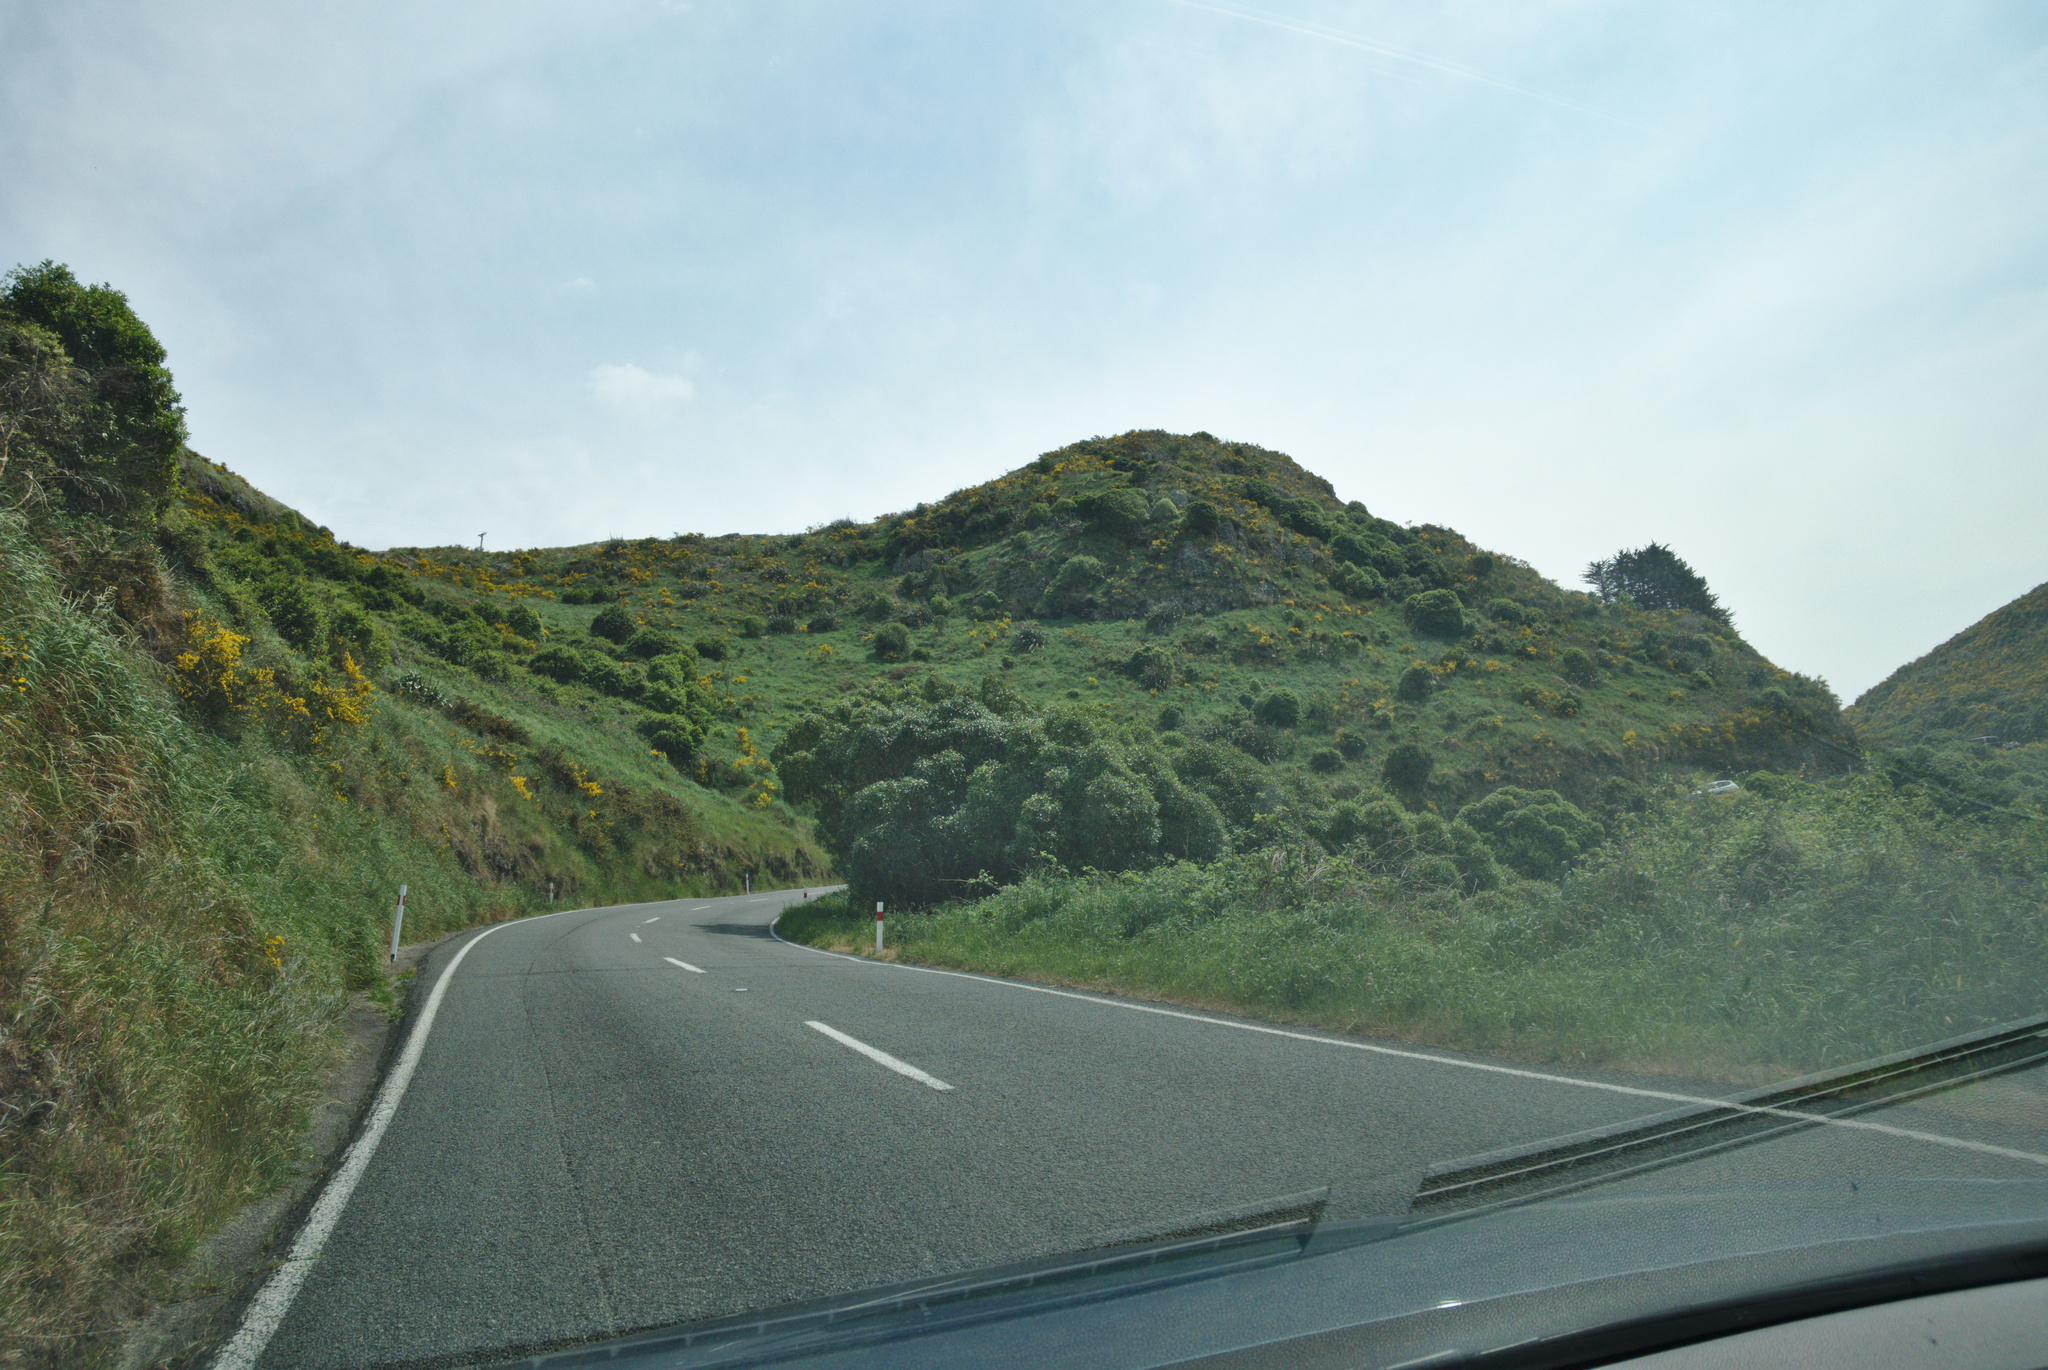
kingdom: Plantae
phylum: Tracheophyta
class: Magnoliopsida
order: Fabales
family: Fabaceae
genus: Cytisus
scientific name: Cytisus scoparius
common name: Scotch broom
